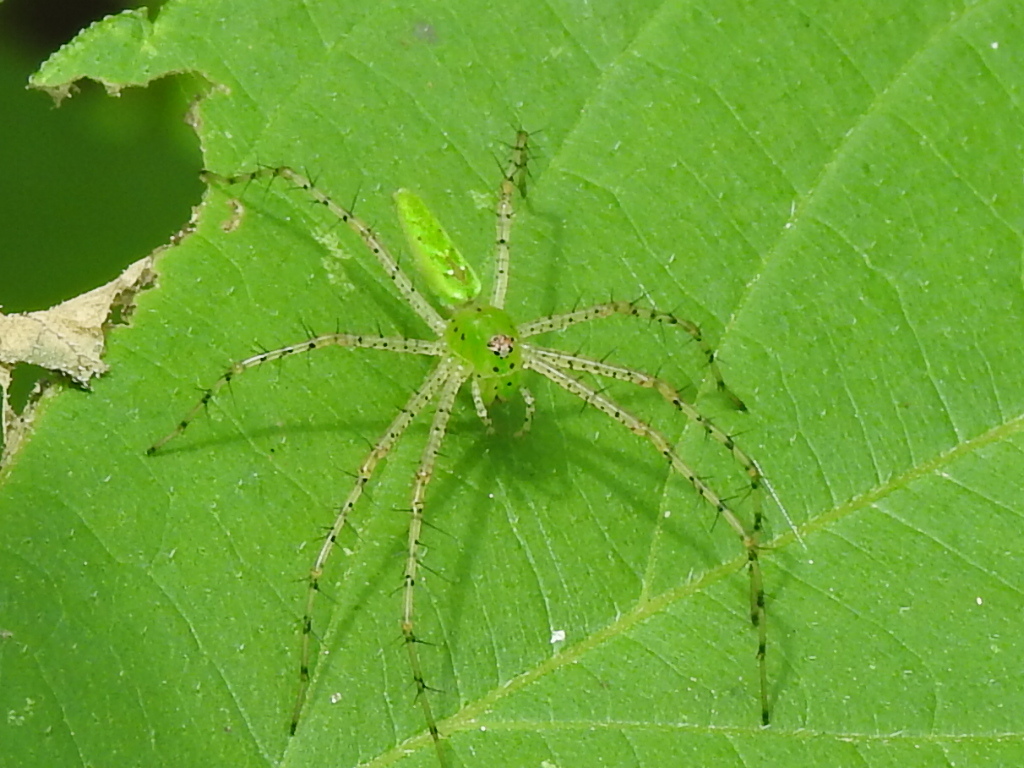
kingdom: Animalia
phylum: Arthropoda
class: Arachnida
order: Araneae
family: Oxyopidae
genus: Peucetia
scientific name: Peucetia viridans
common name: Lynx spiders
